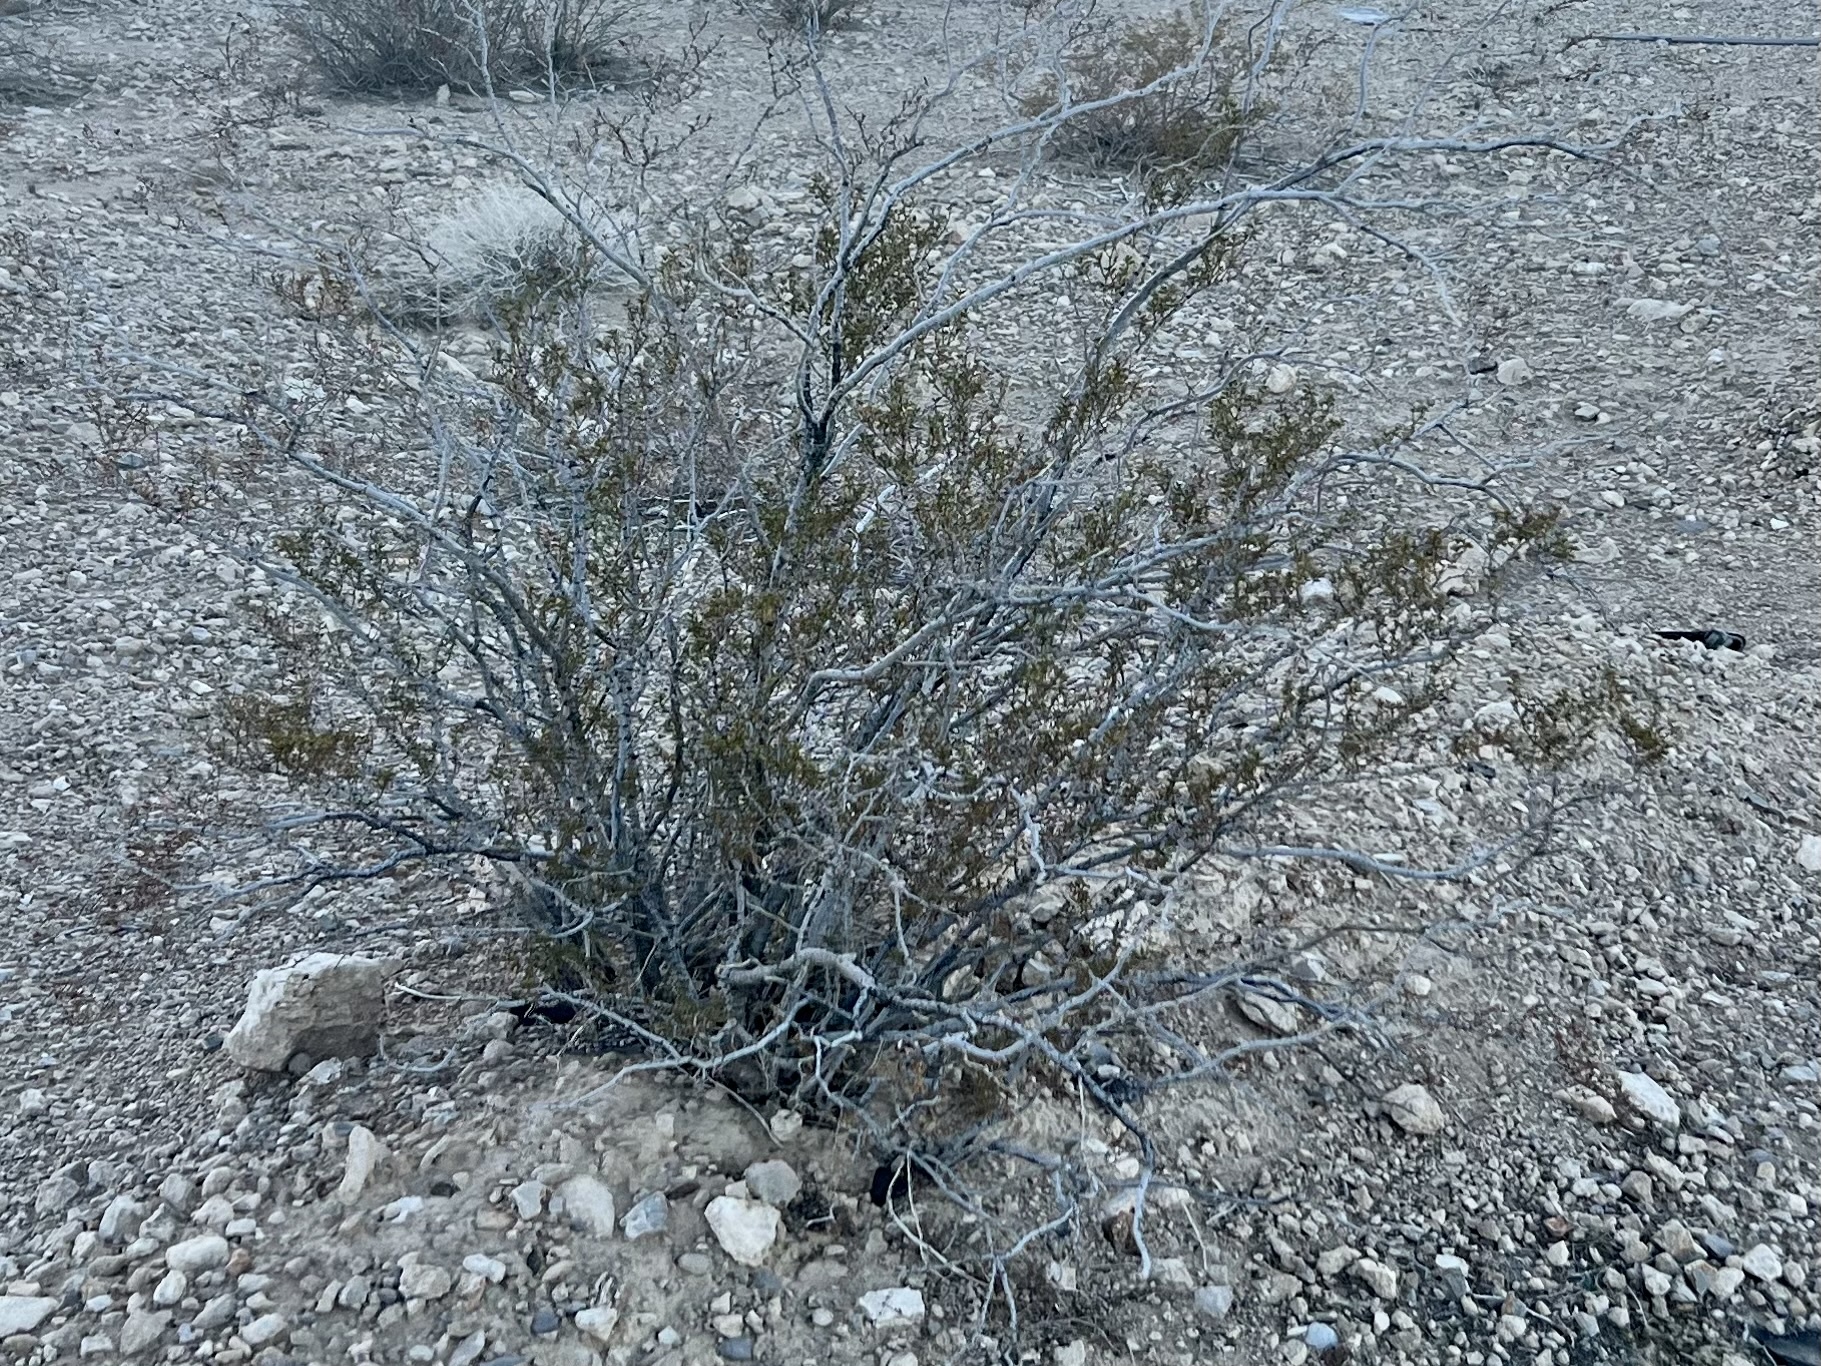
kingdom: Plantae
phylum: Tracheophyta
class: Magnoliopsida
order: Zygophyllales
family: Zygophyllaceae
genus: Larrea
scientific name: Larrea tridentata
